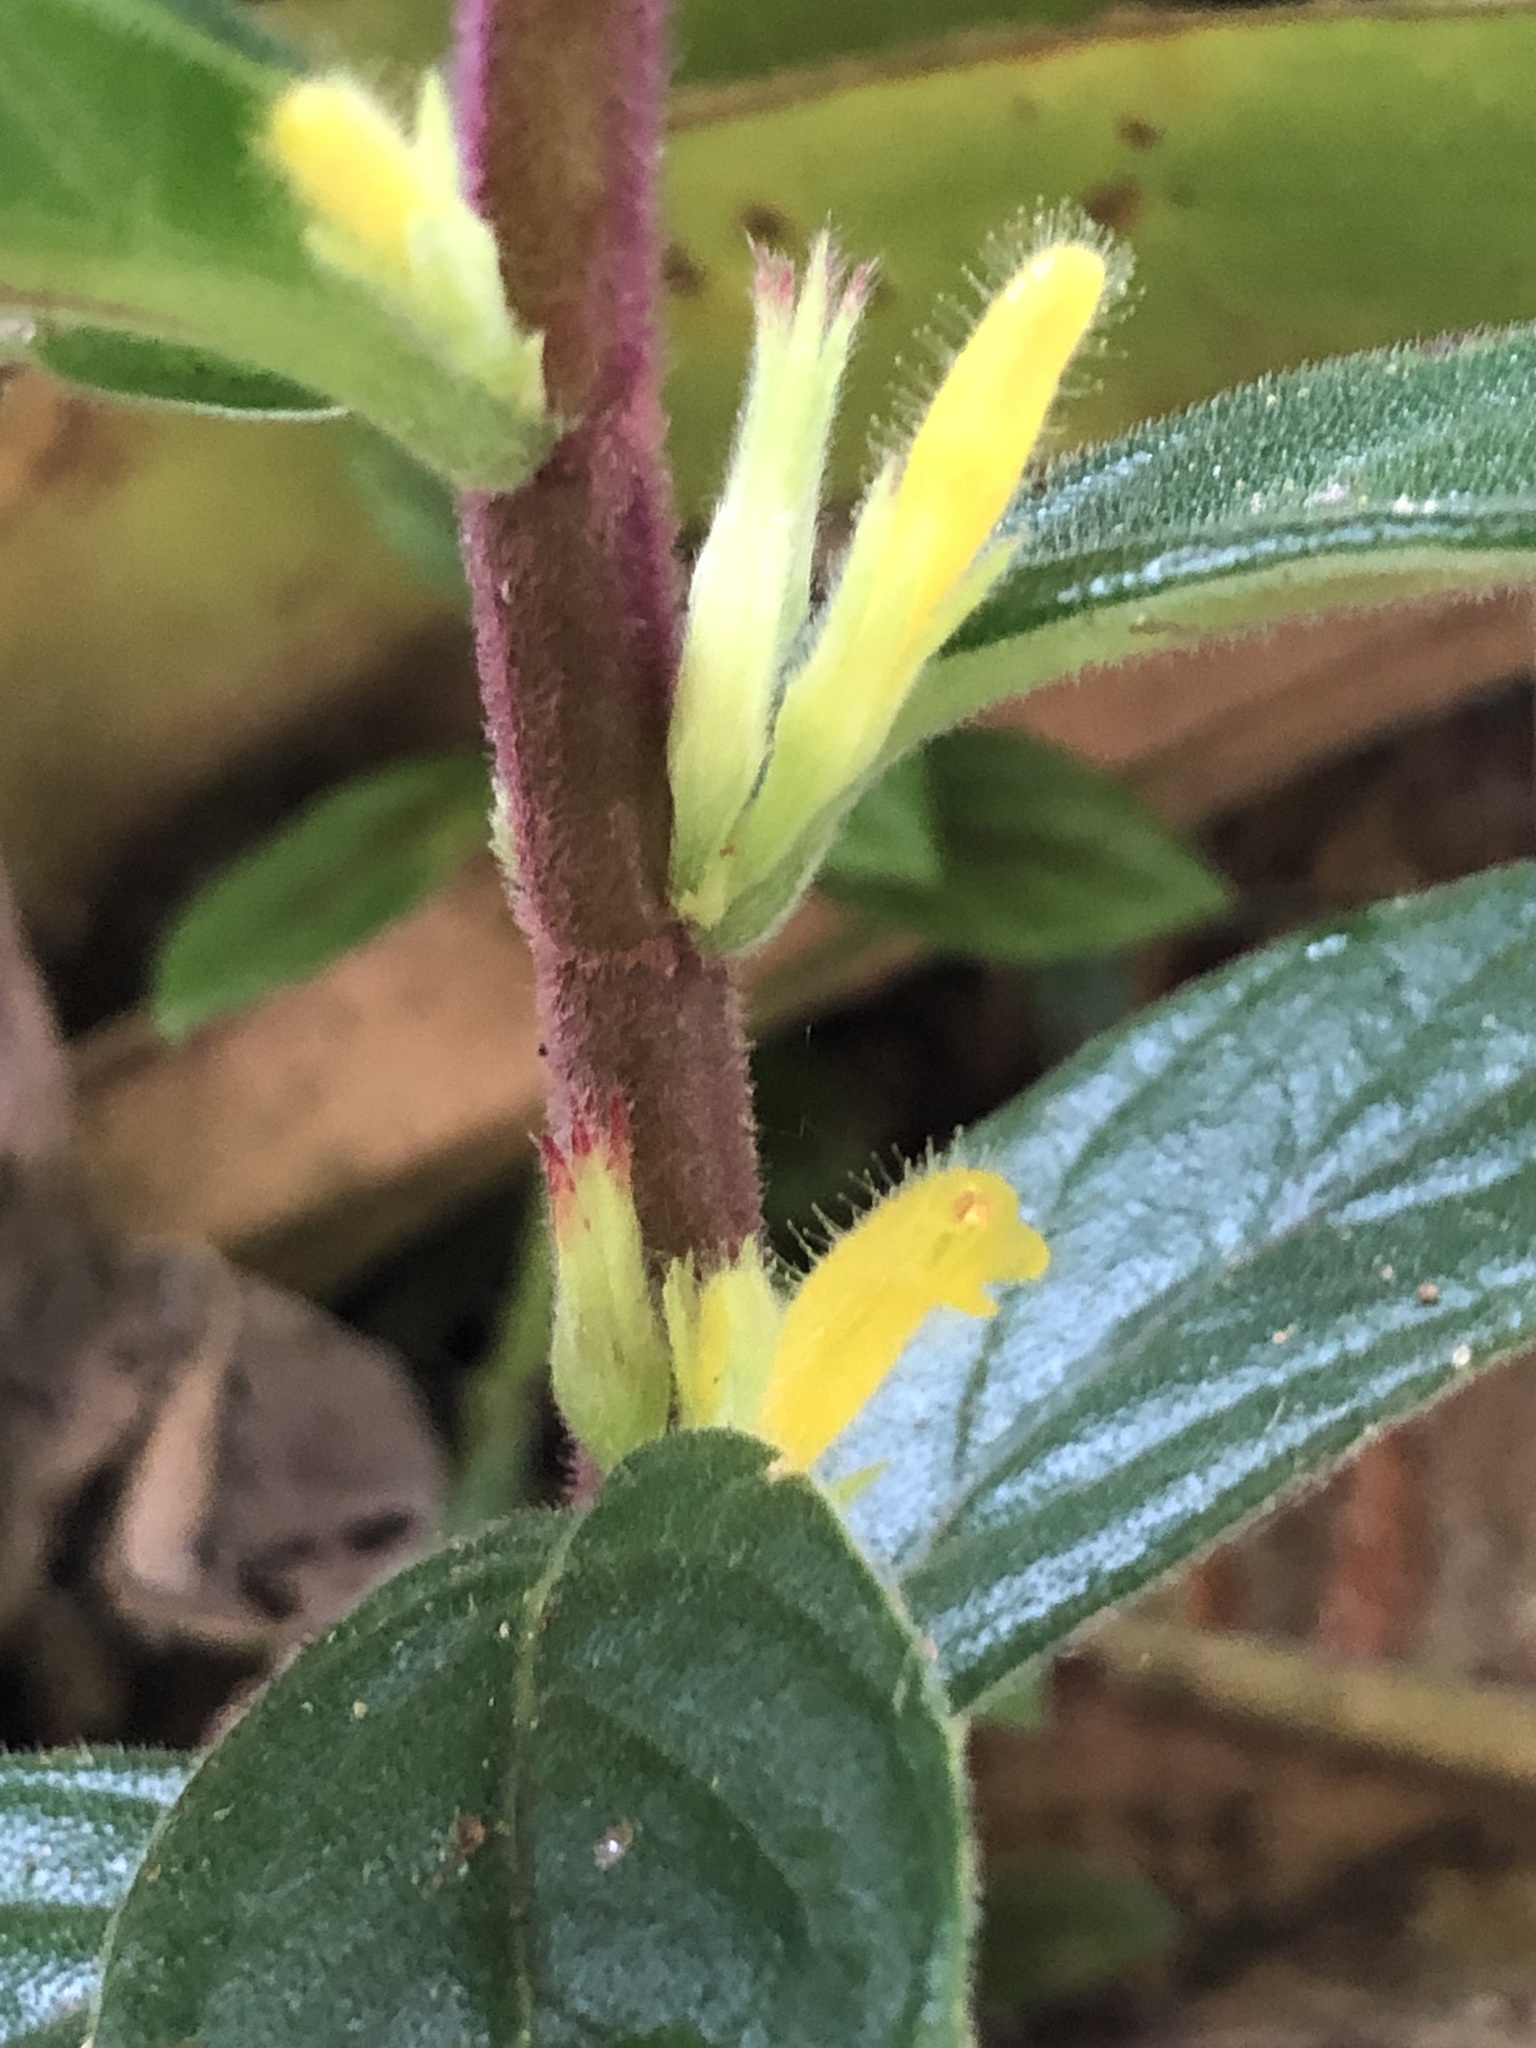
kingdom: Plantae
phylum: Tracheophyta
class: Magnoliopsida
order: Lamiales
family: Gesneriaceae
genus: Columnea
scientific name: Columnea orientandina
